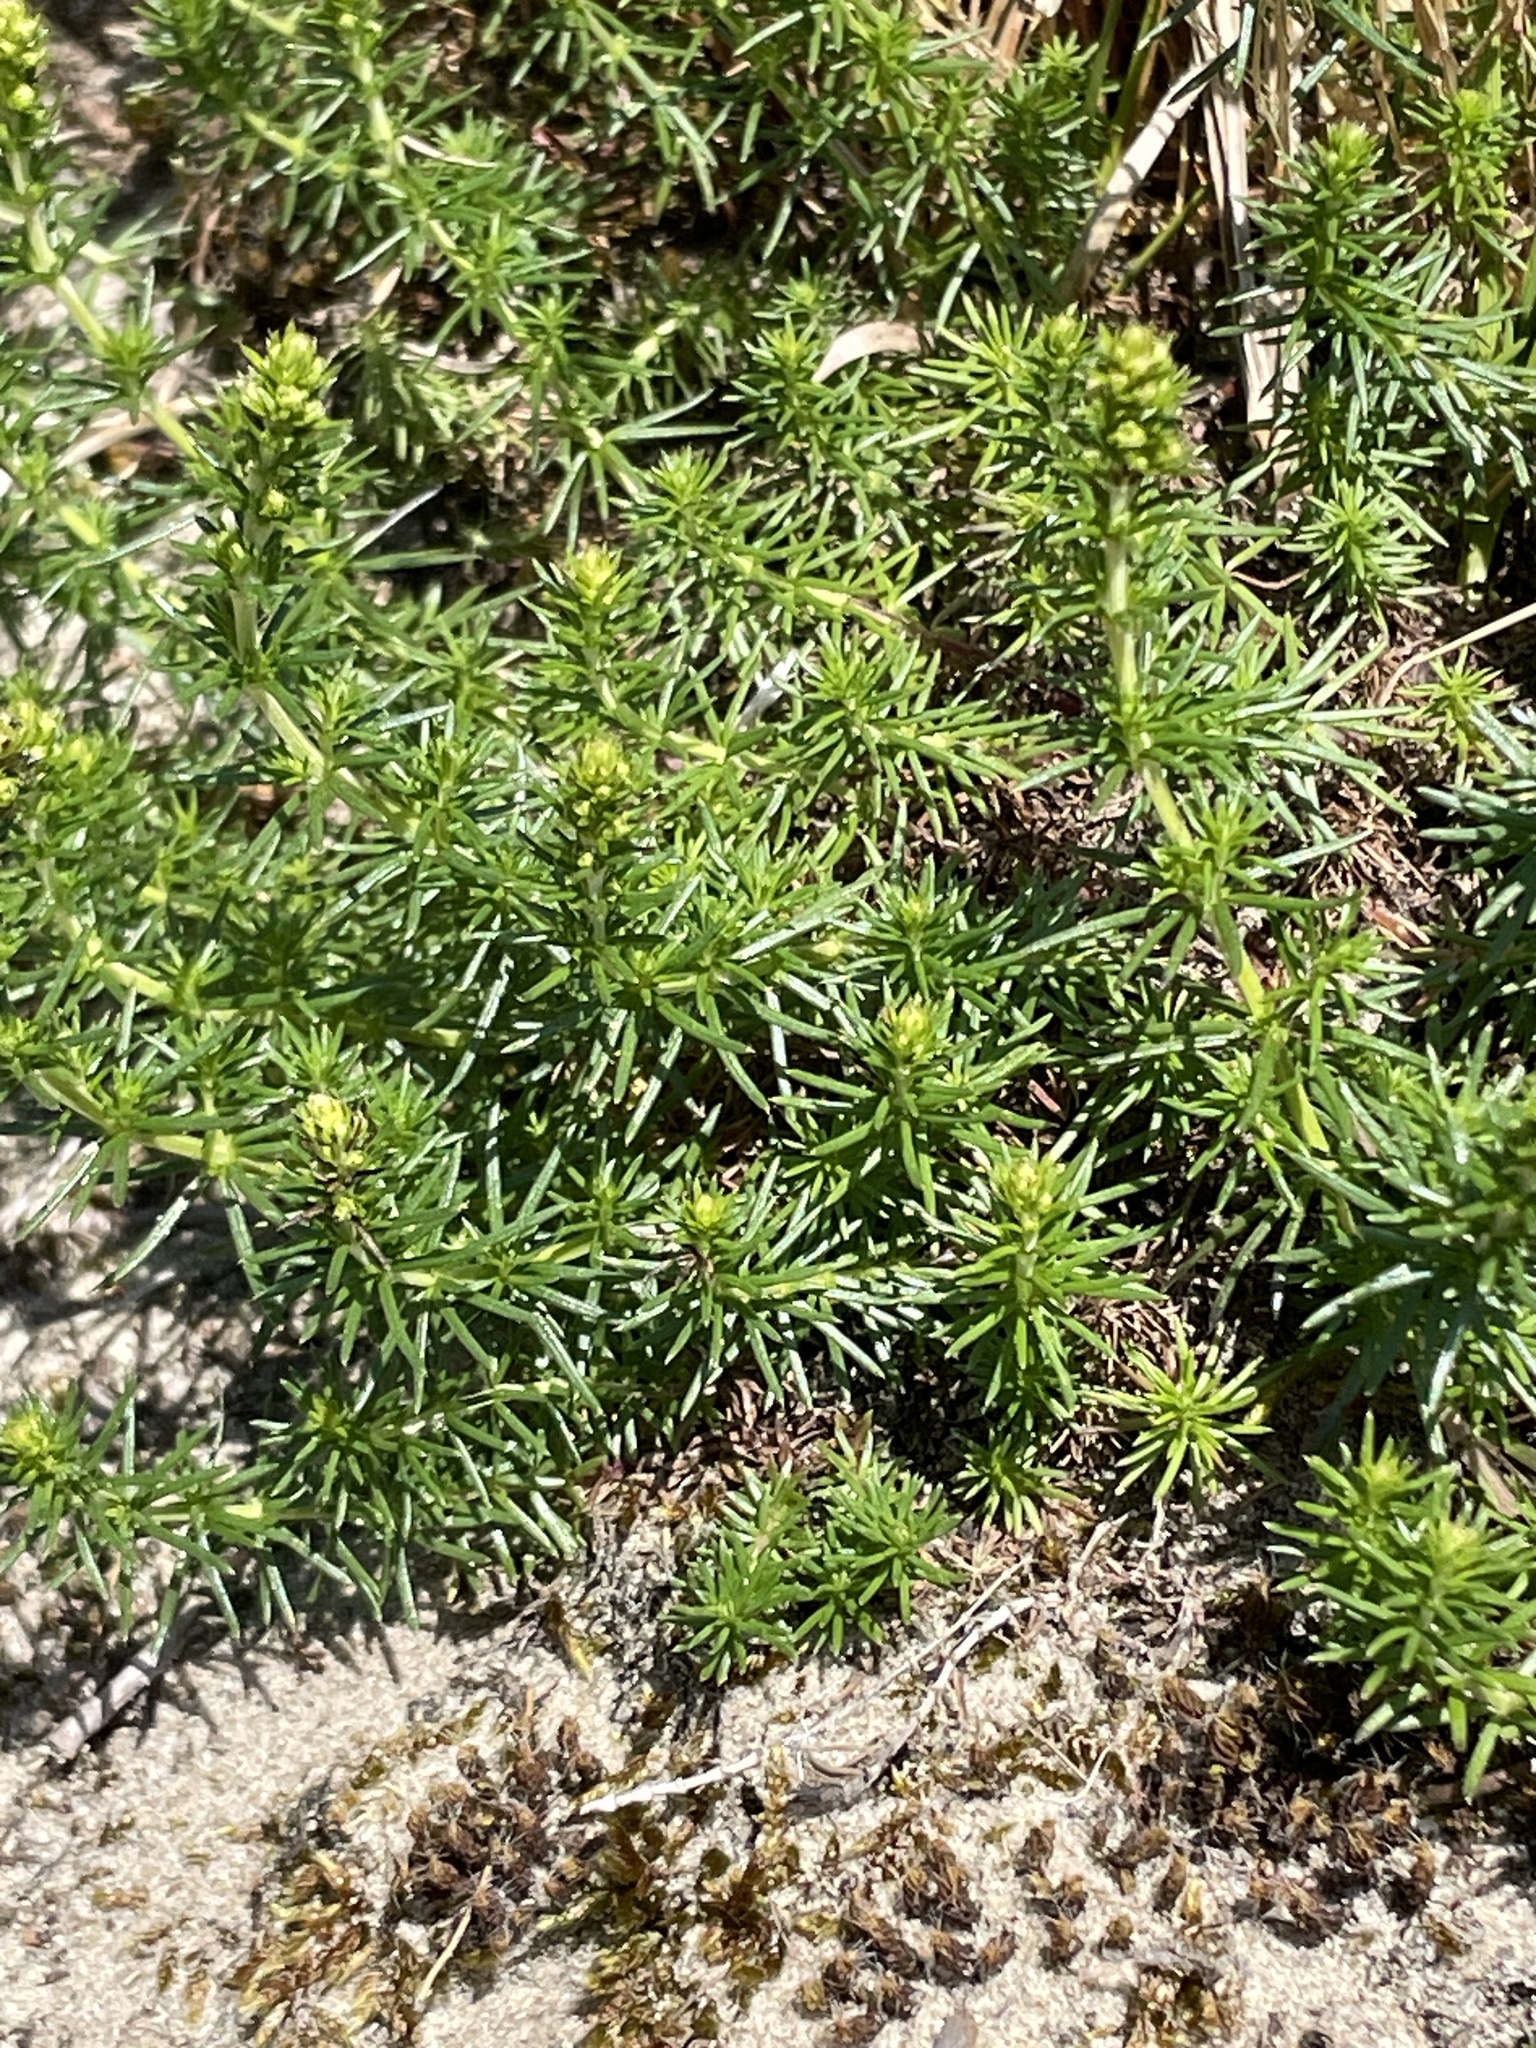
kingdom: Plantae
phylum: Tracheophyta
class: Magnoliopsida
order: Gentianales
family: Rubiaceae
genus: Galium
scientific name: Galium verum
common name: Lady's bedstraw
